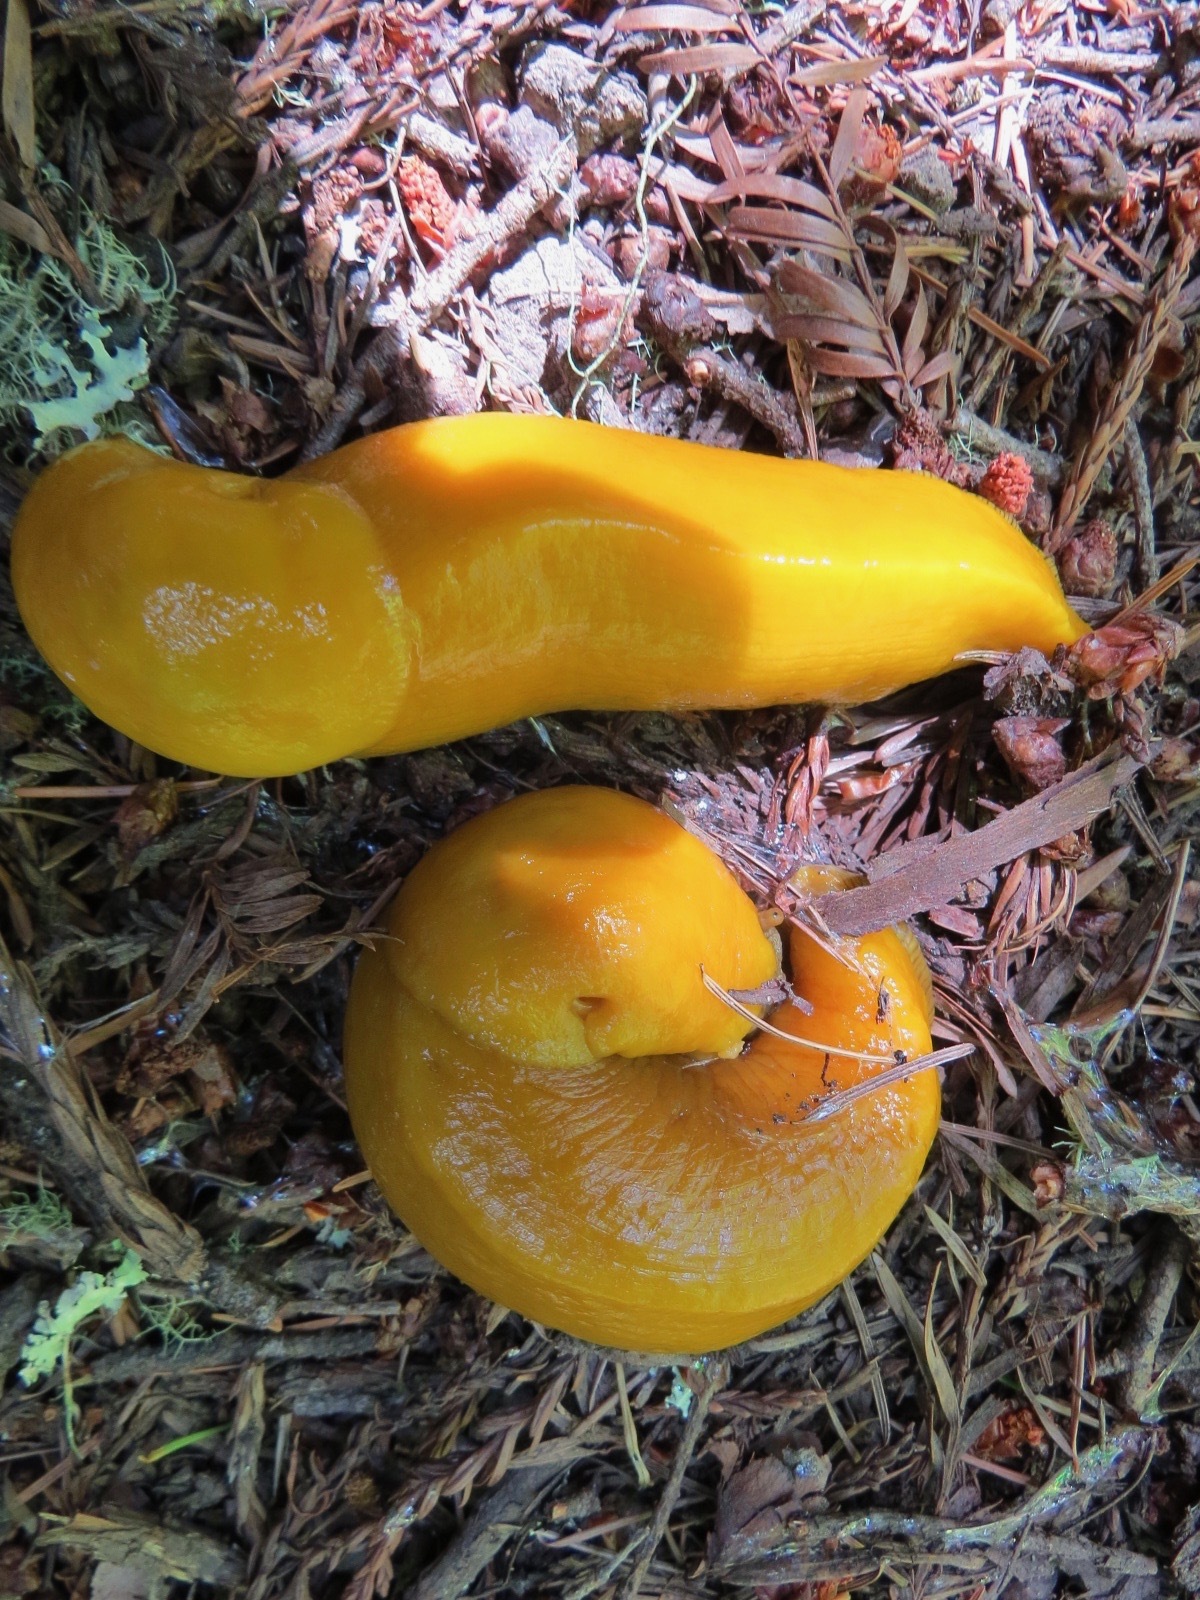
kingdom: Animalia
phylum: Mollusca
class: Gastropoda
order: Stylommatophora
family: Ariolimacidae
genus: Ariolimax
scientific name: Ariolimax californicus
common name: California banana slug
